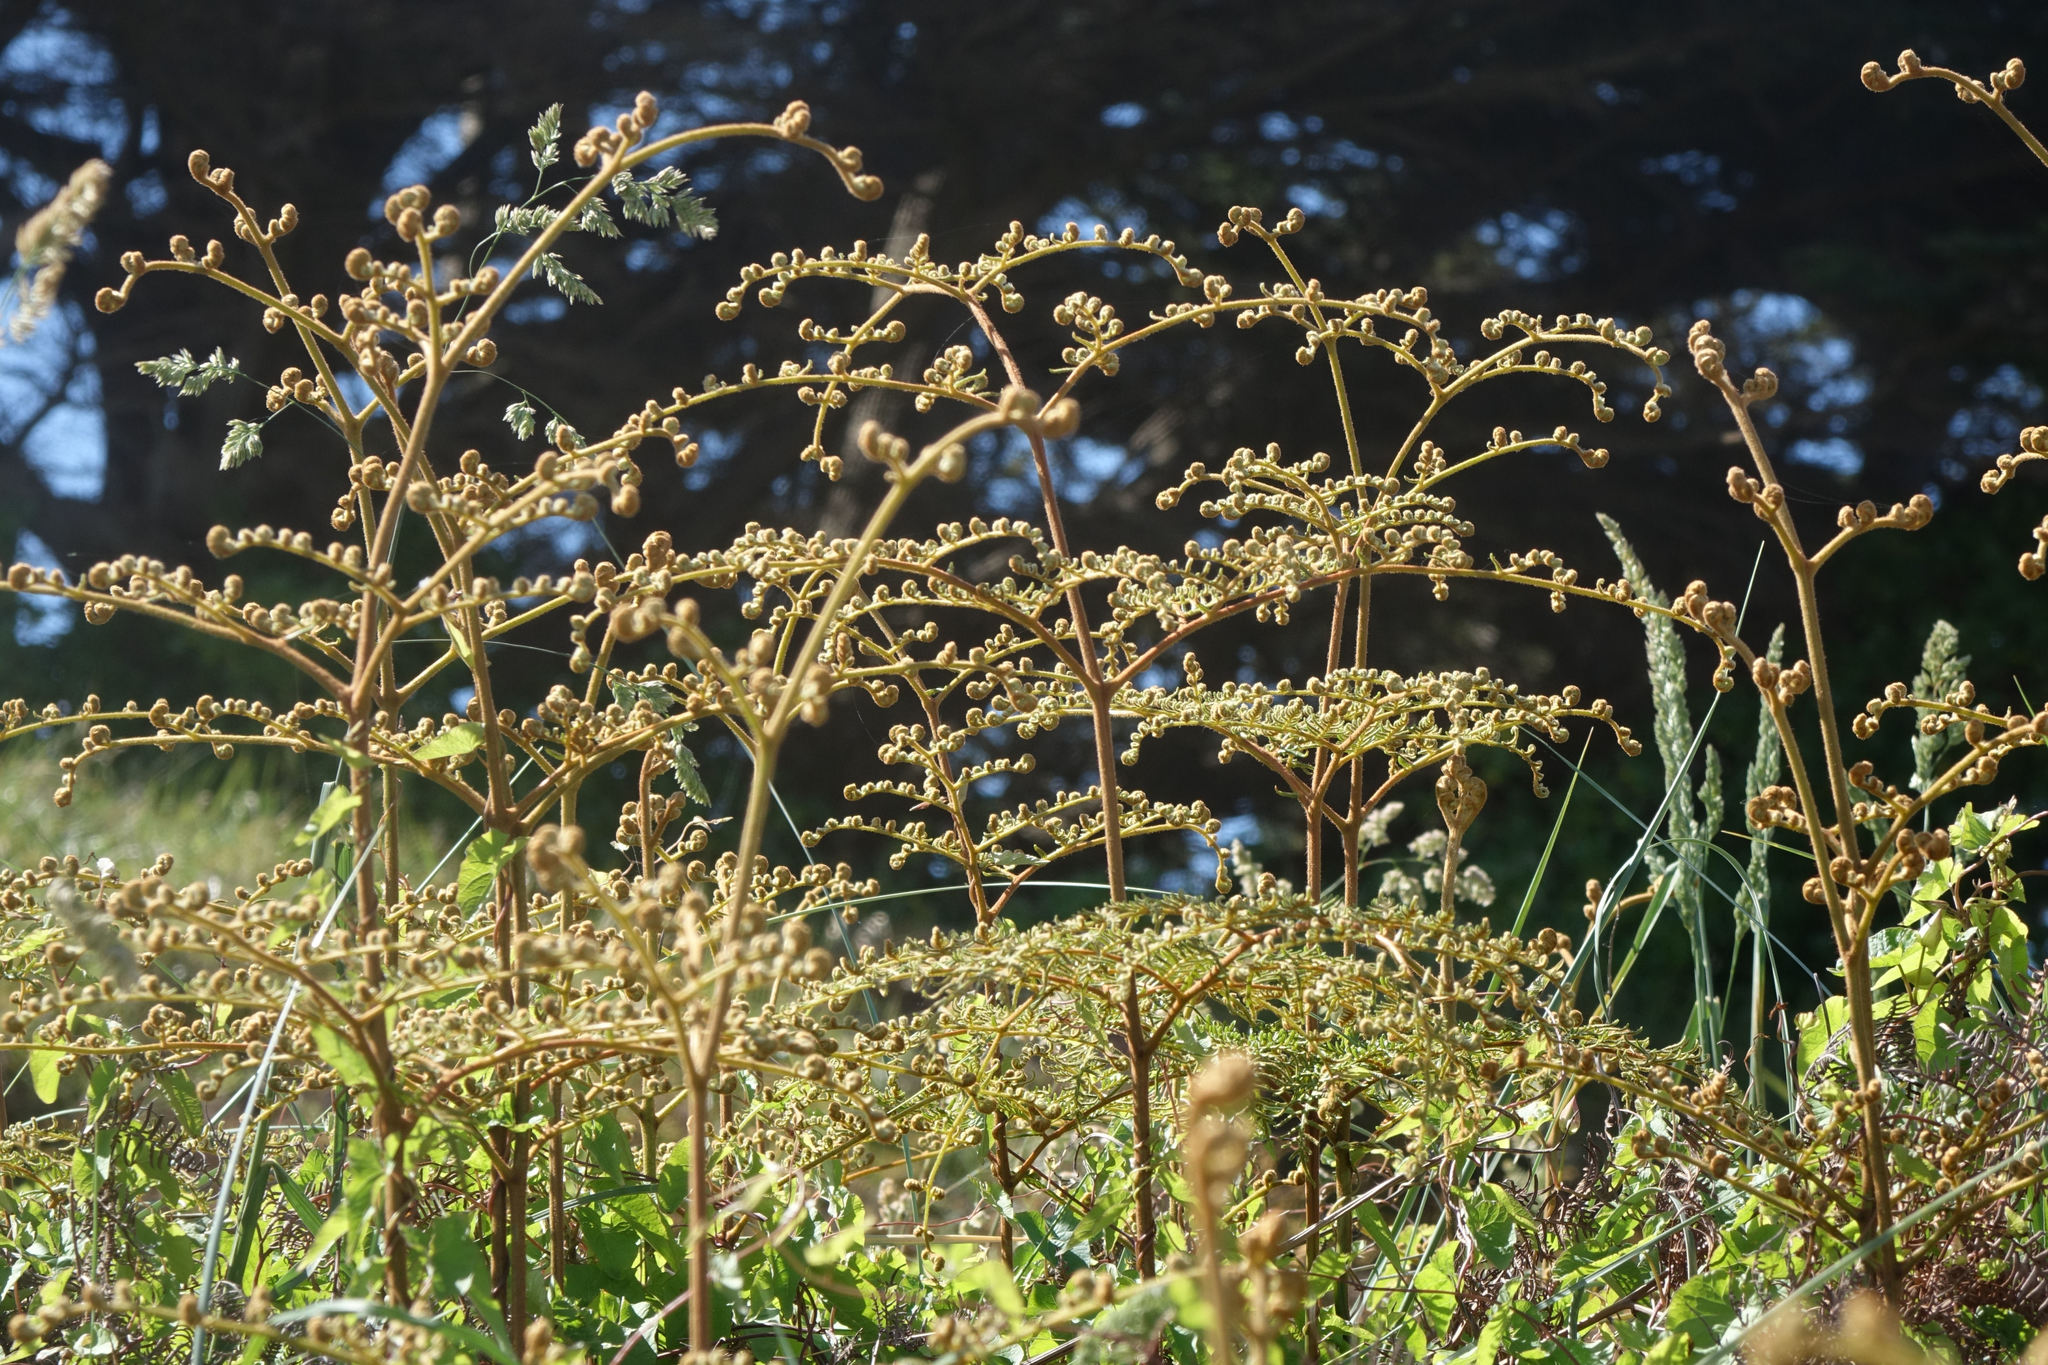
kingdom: Plantae
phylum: Tracheophyta
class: Polypodiopsida
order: Polypodiales
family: Dennstaedtiaceae
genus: Pteridium
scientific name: Pteridium esculentum
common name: Bracken fern
